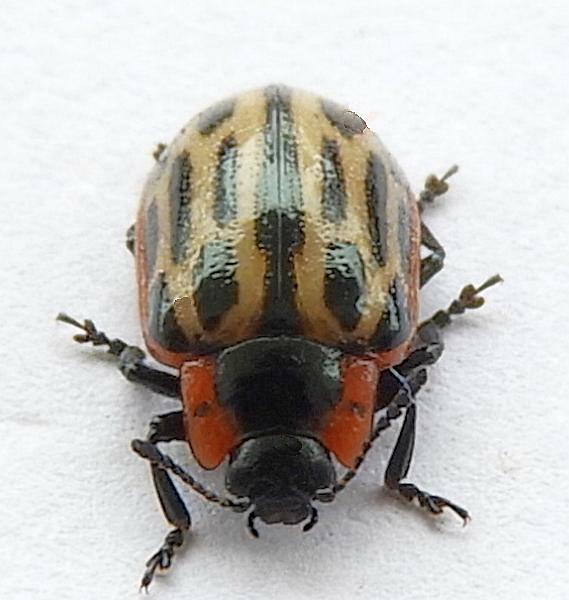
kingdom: Animalia
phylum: Arthropoda
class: Insecta
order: Coleoptera
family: Chrysomelidae
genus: Aethiopocassis
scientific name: Aethiopocassis scripta
